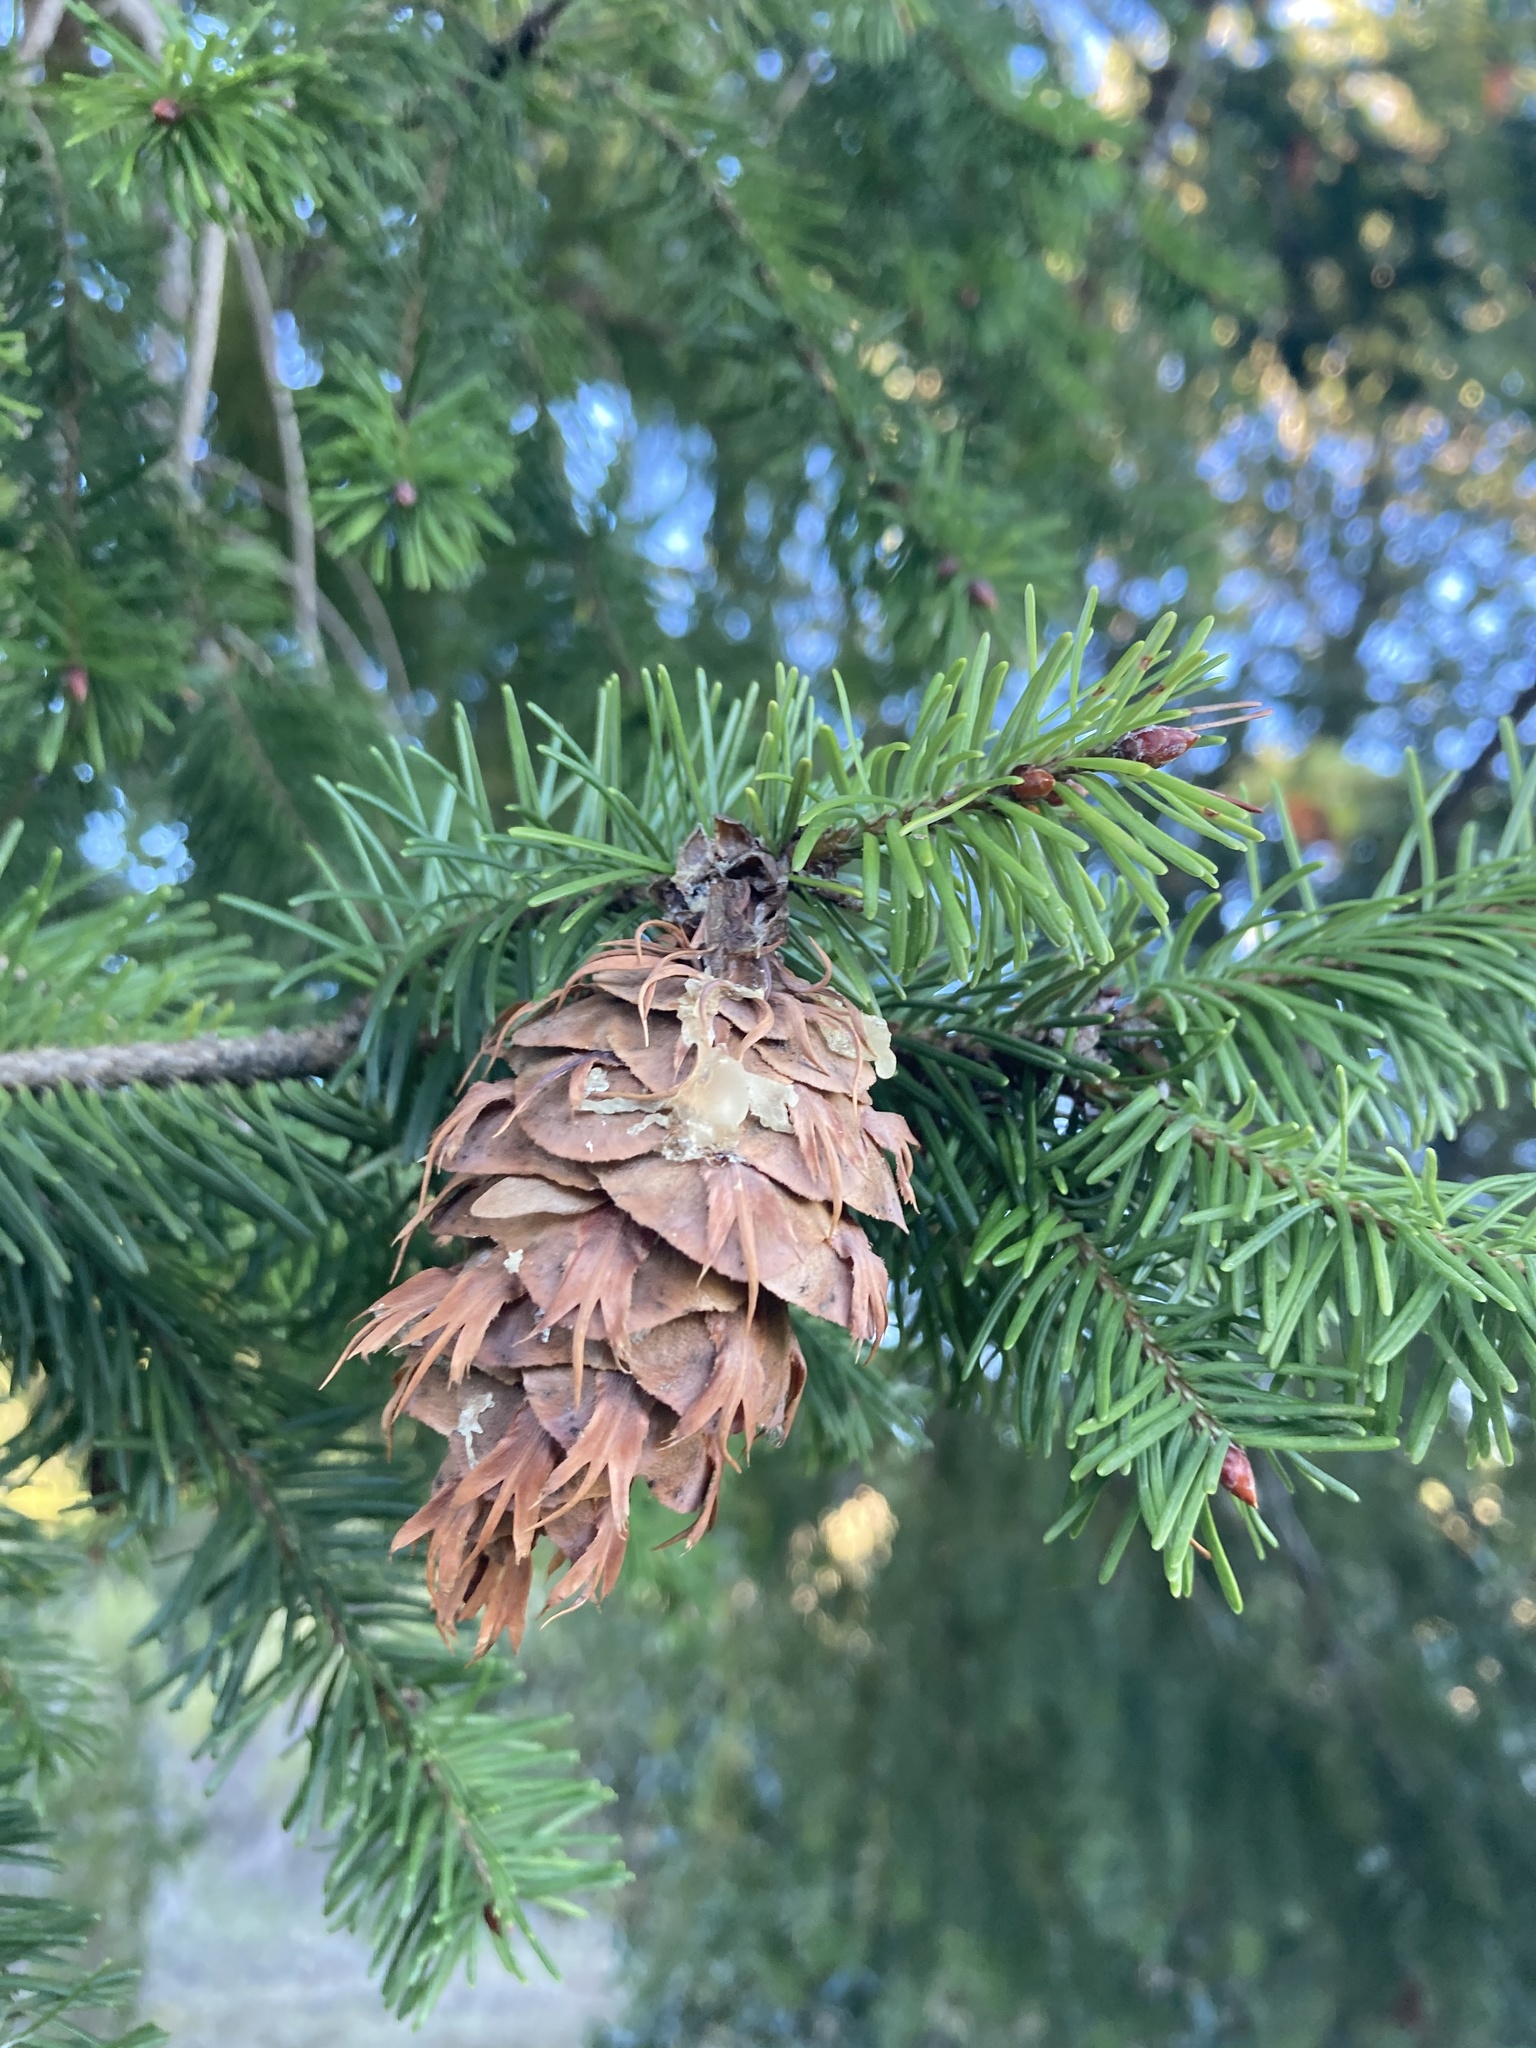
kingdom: Plantae
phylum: Tracheophyta
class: Pinopsida
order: Pinales
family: Pinaceae
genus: Pseudotsuga
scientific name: Pseudotsuga menziesii
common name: Douglas fir
